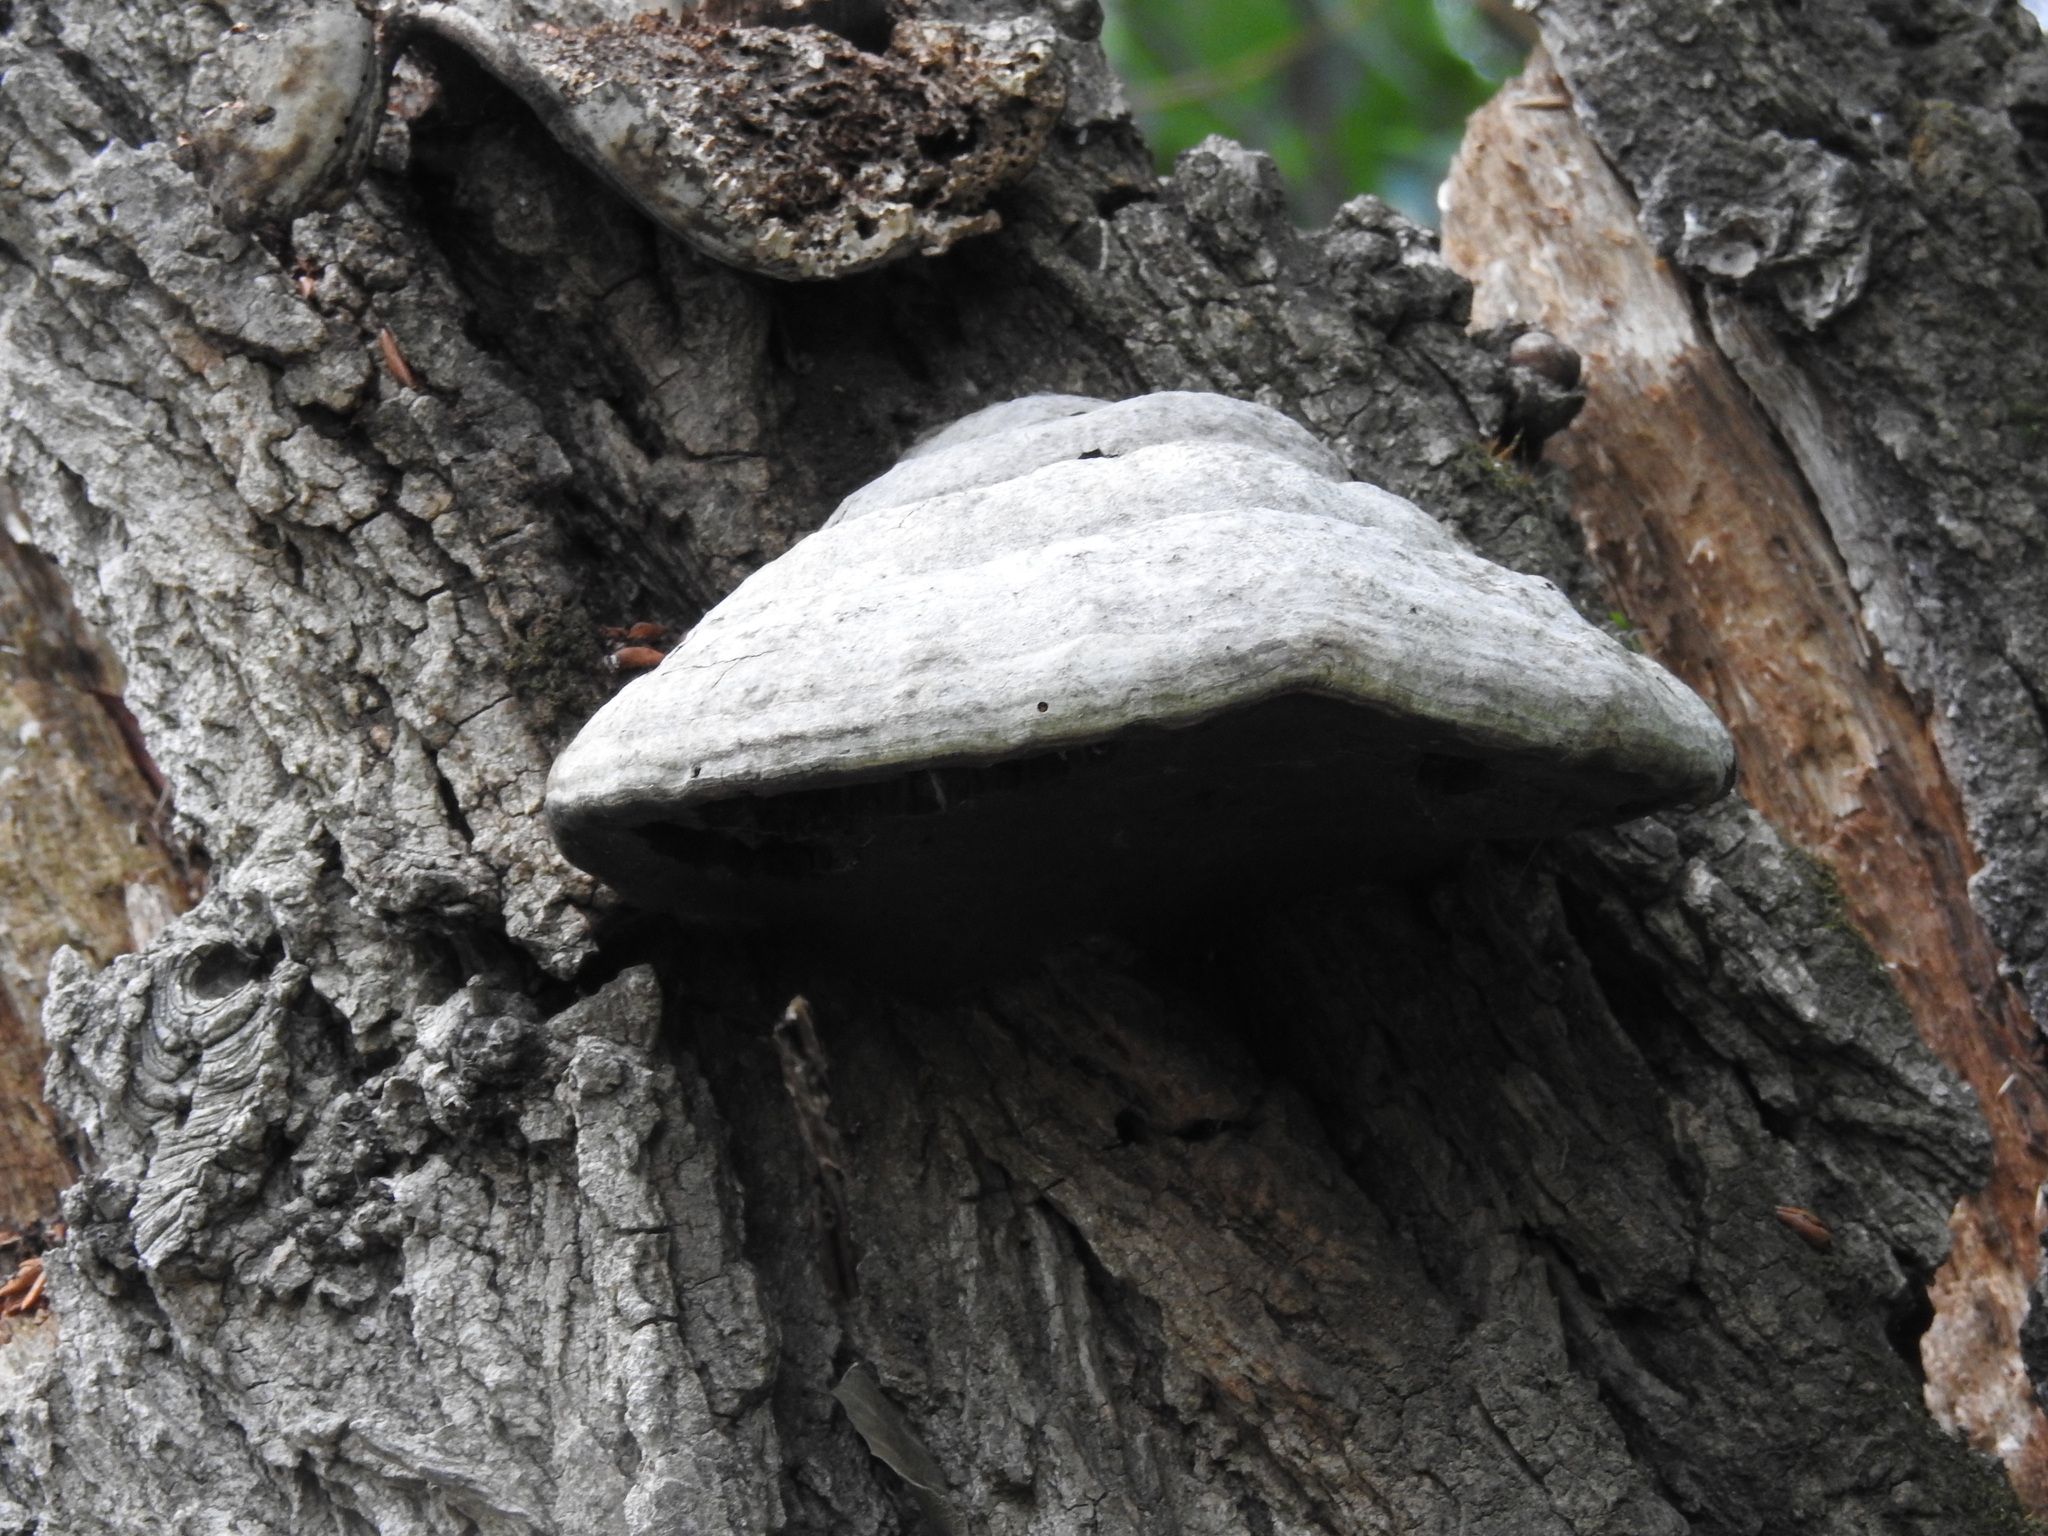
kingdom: Fungi
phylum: Basidiomycota
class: Agaricomycetes
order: Polyporales
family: Polyporaceae
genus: Fomes
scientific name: Fomes fomentarius
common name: Hoof fungus
